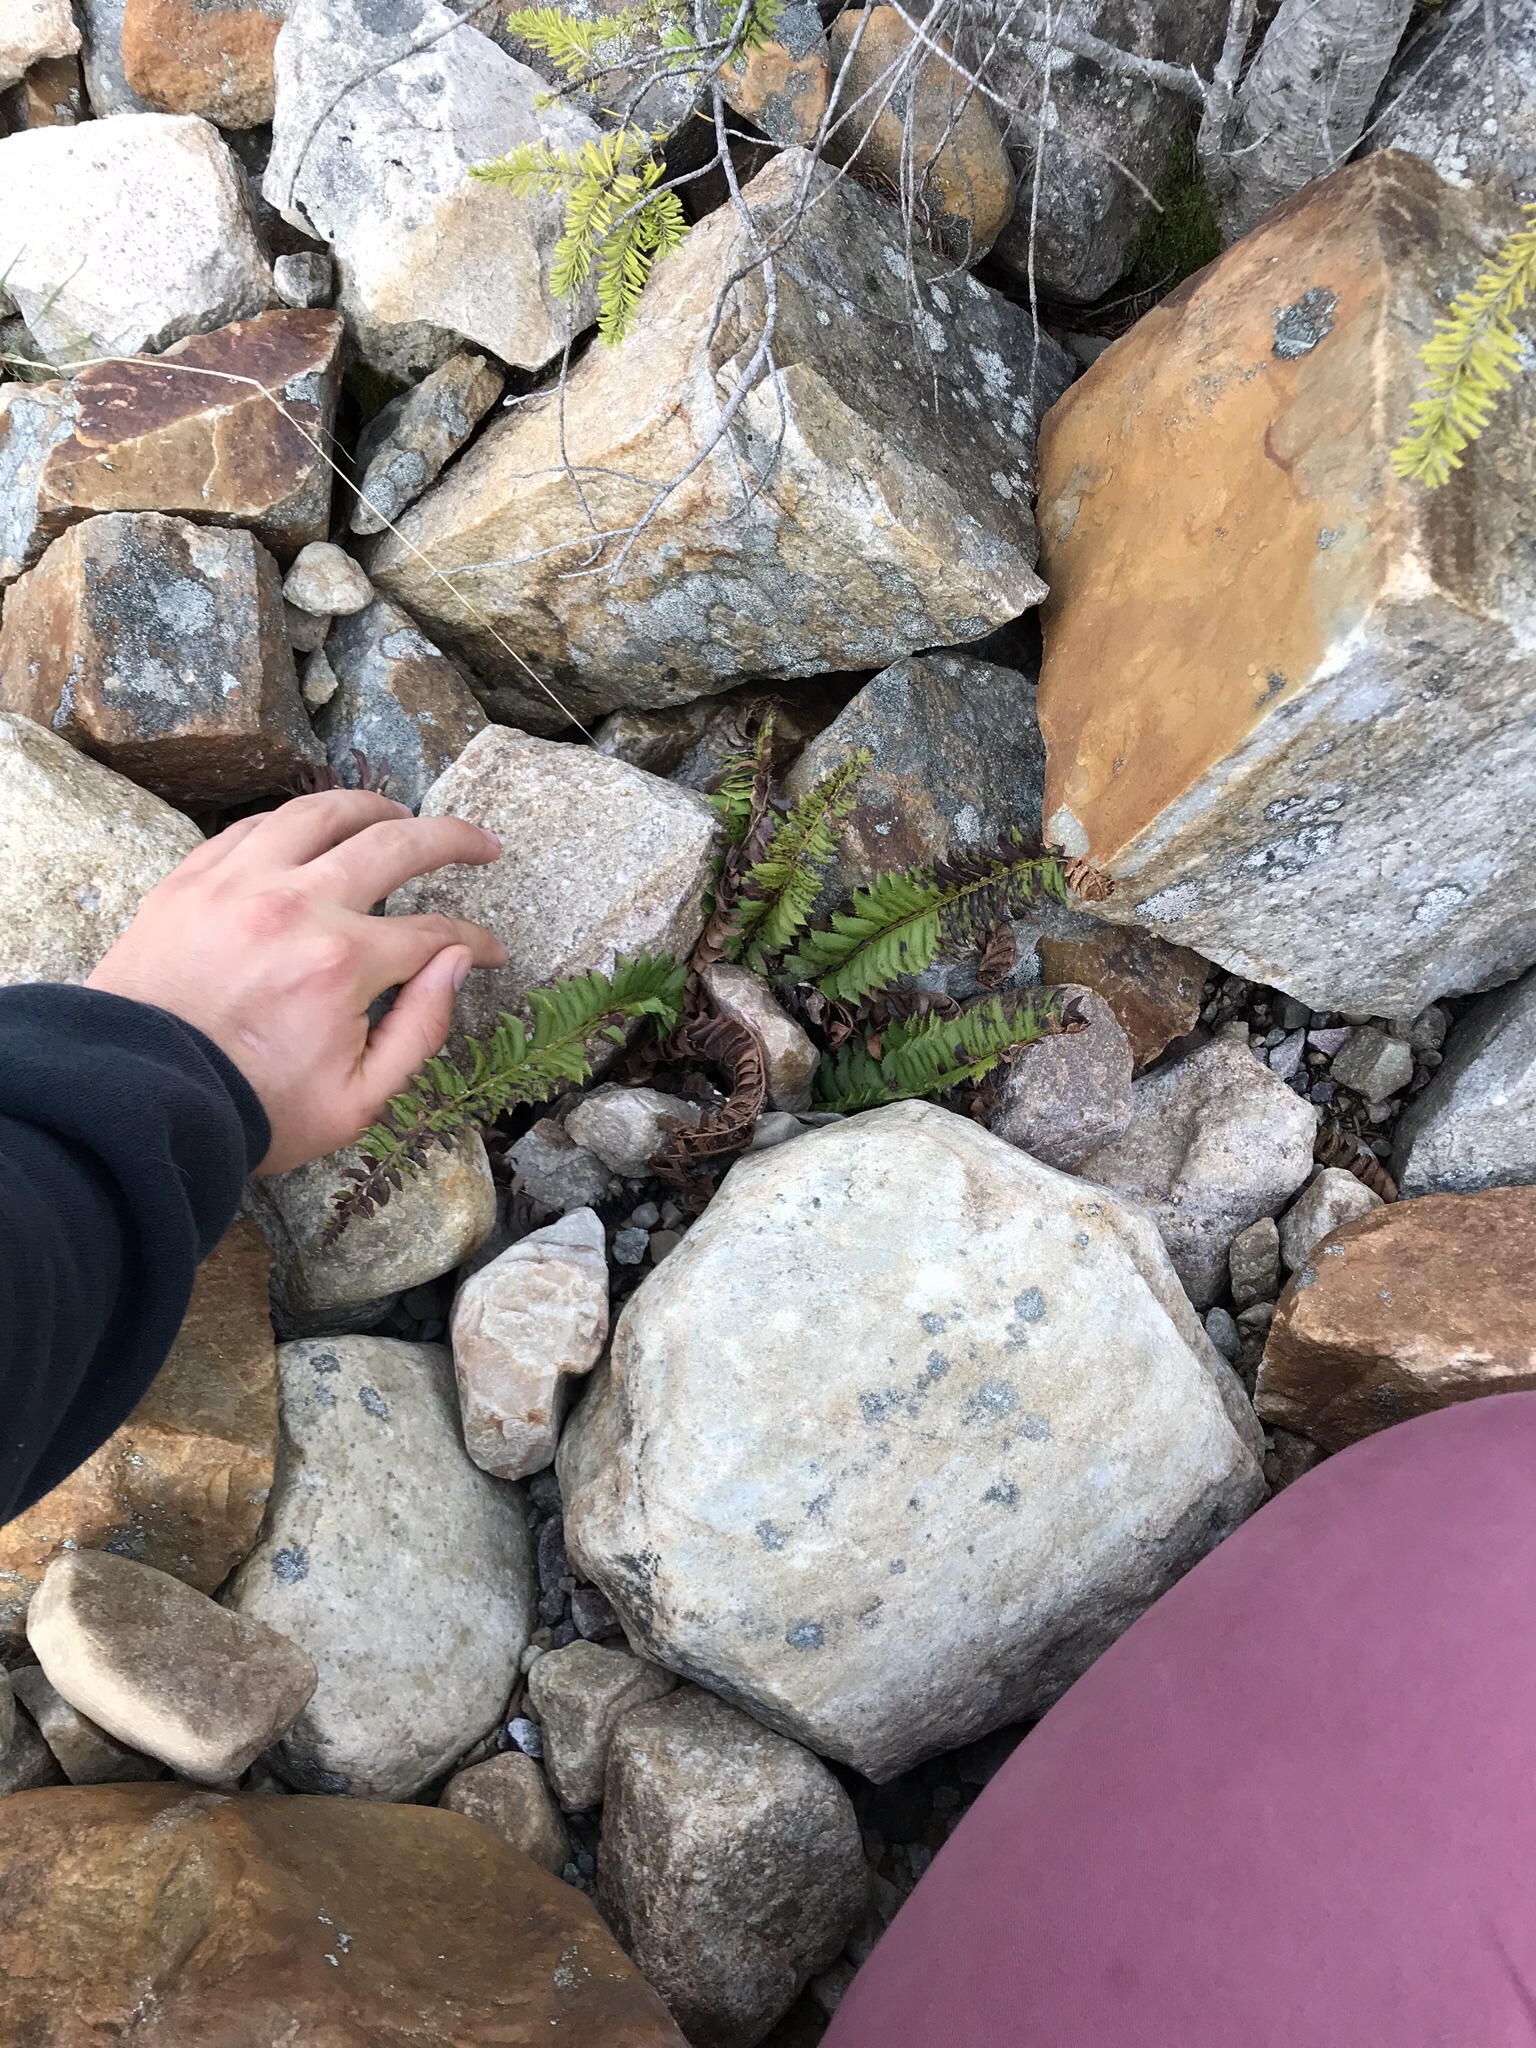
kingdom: Plantae
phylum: Tracheophyta
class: Polypodiopsida
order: Polypodiales
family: Dryopteridaceae
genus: Polystichum
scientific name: Polystichum lonchitis
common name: Holly fern
